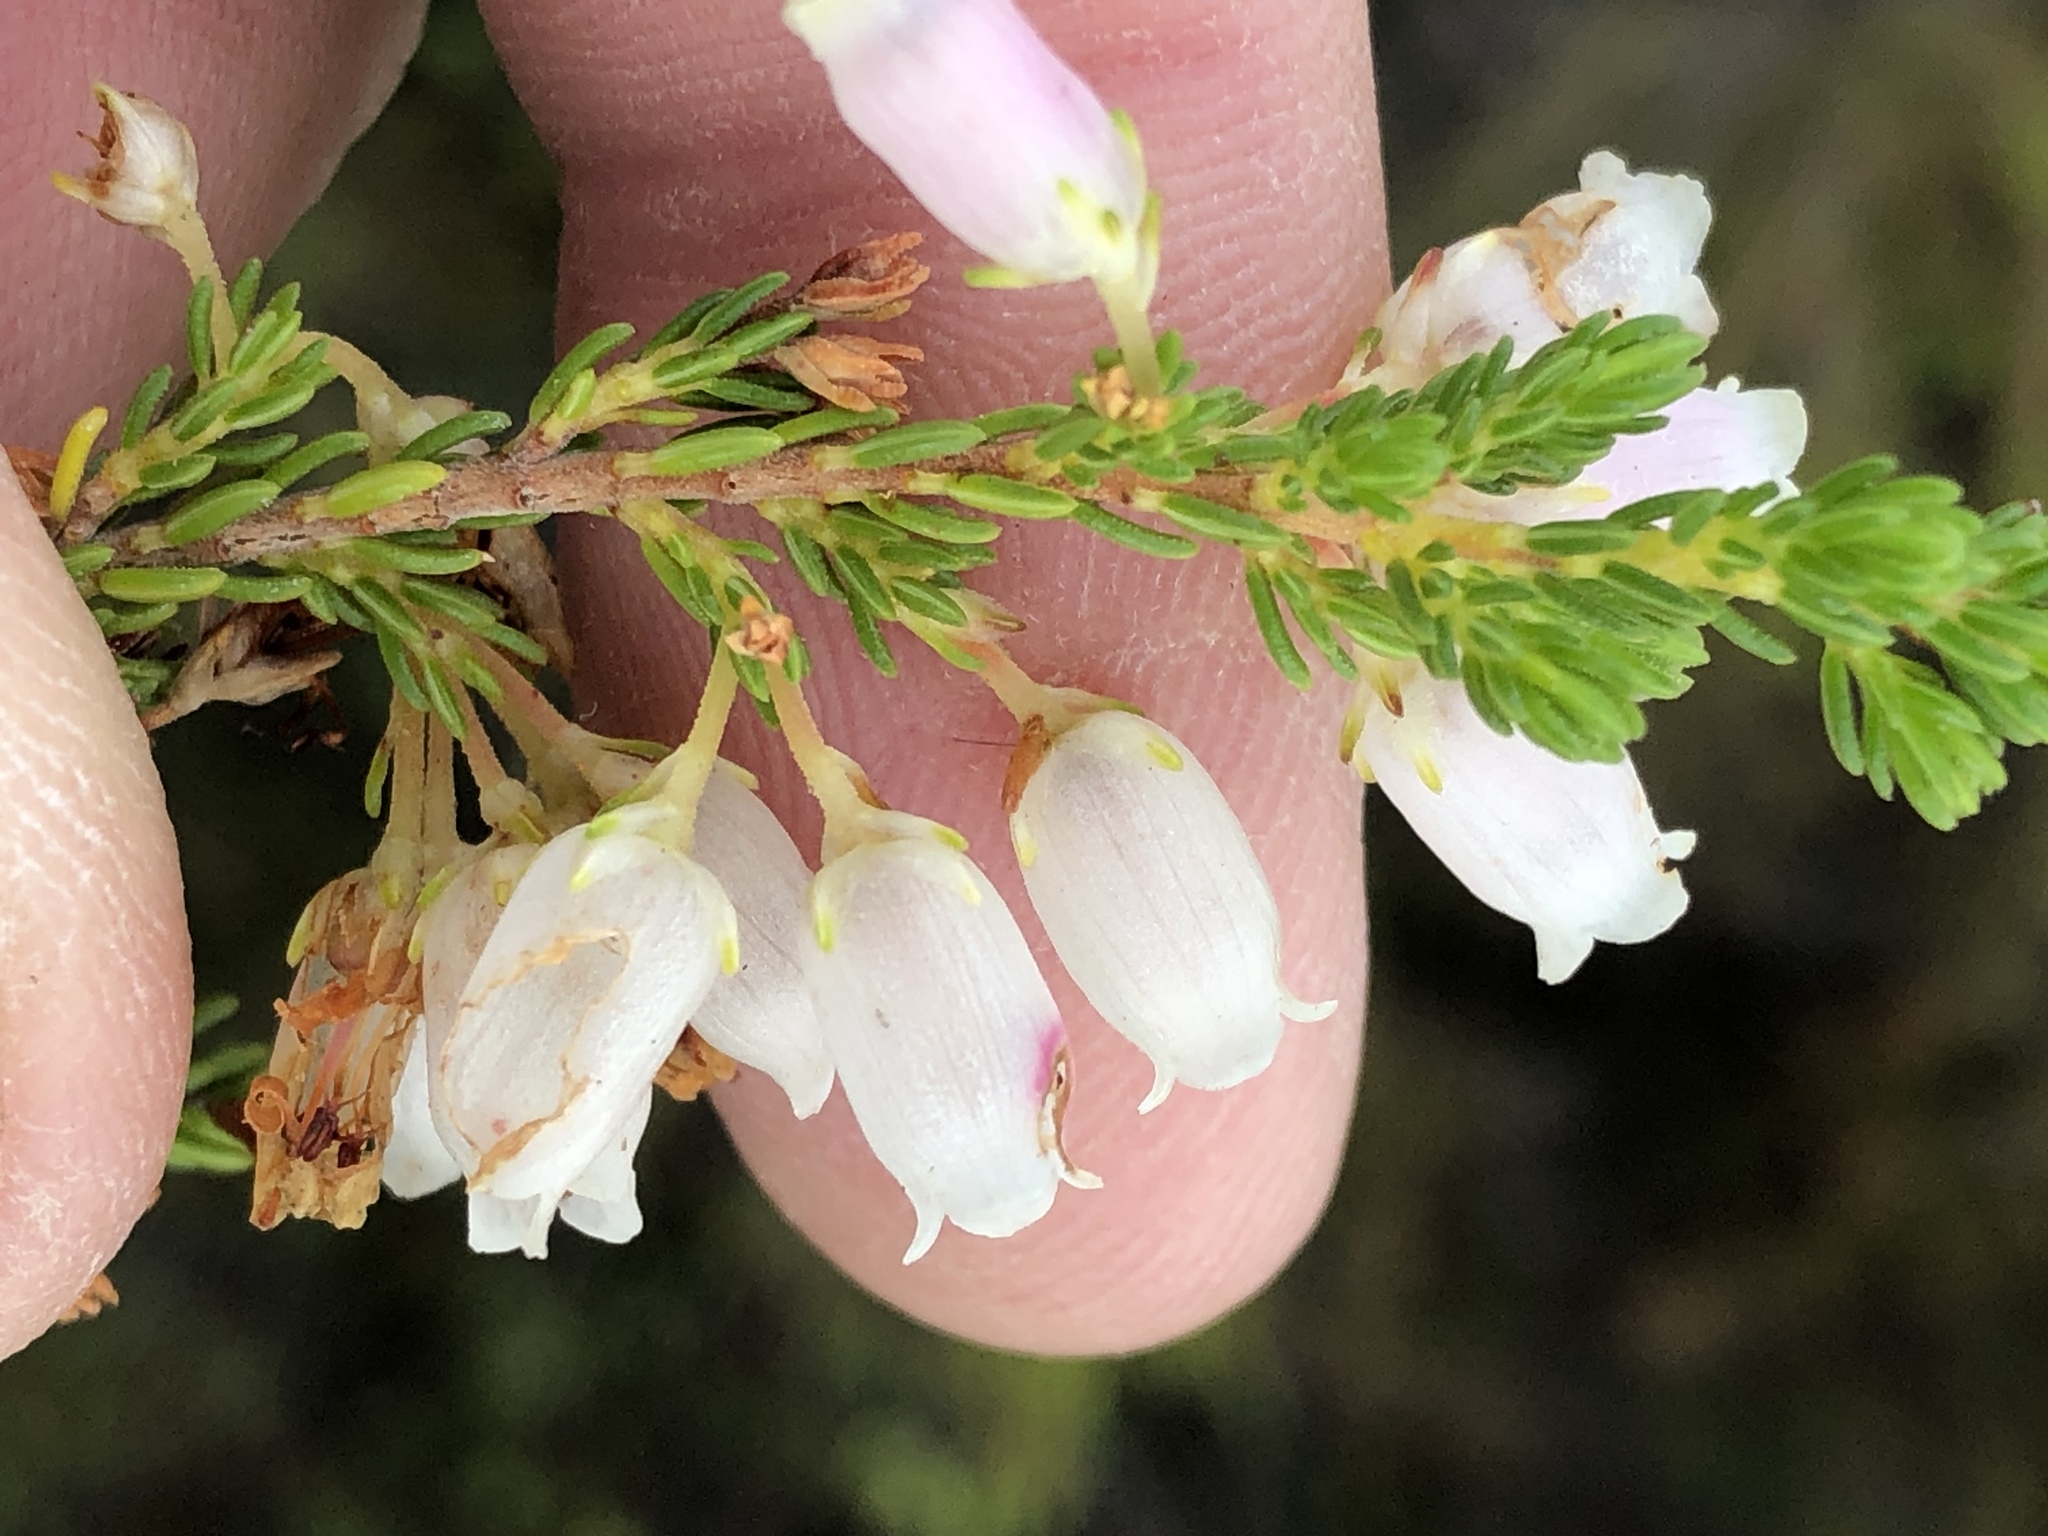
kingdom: Plantae
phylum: Tracheophyta
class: Magnoliopsida
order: Ericales
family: Ericaceae
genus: Erica
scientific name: Erica recta
